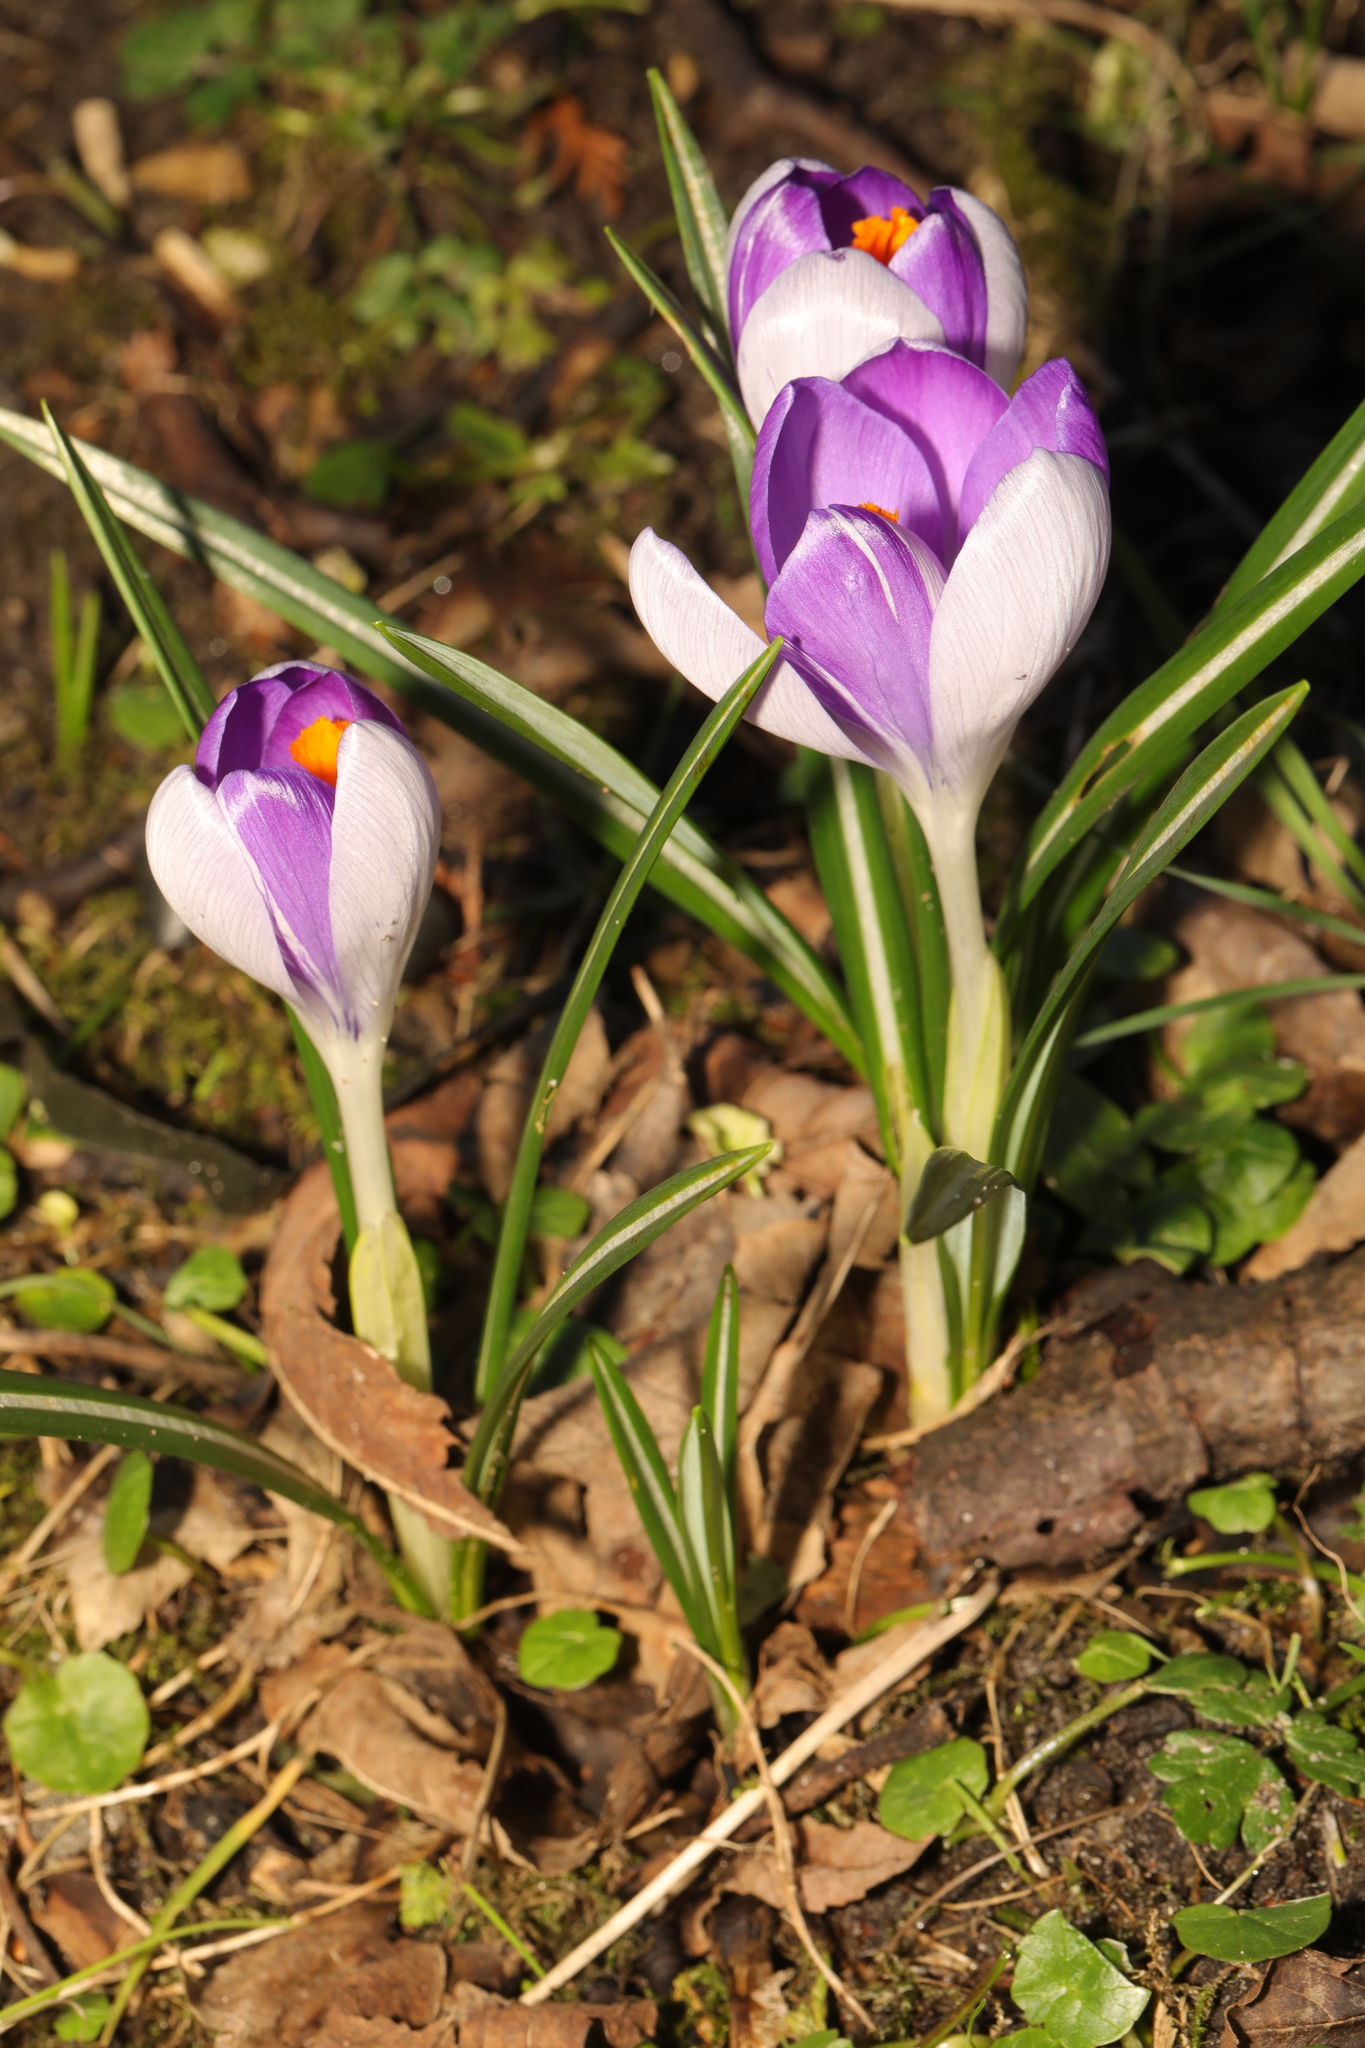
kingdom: Plantae
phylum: Tracheophyta
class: Liliopsida
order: Asparagales
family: Iridaceae
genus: Crocus
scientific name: Crocus
